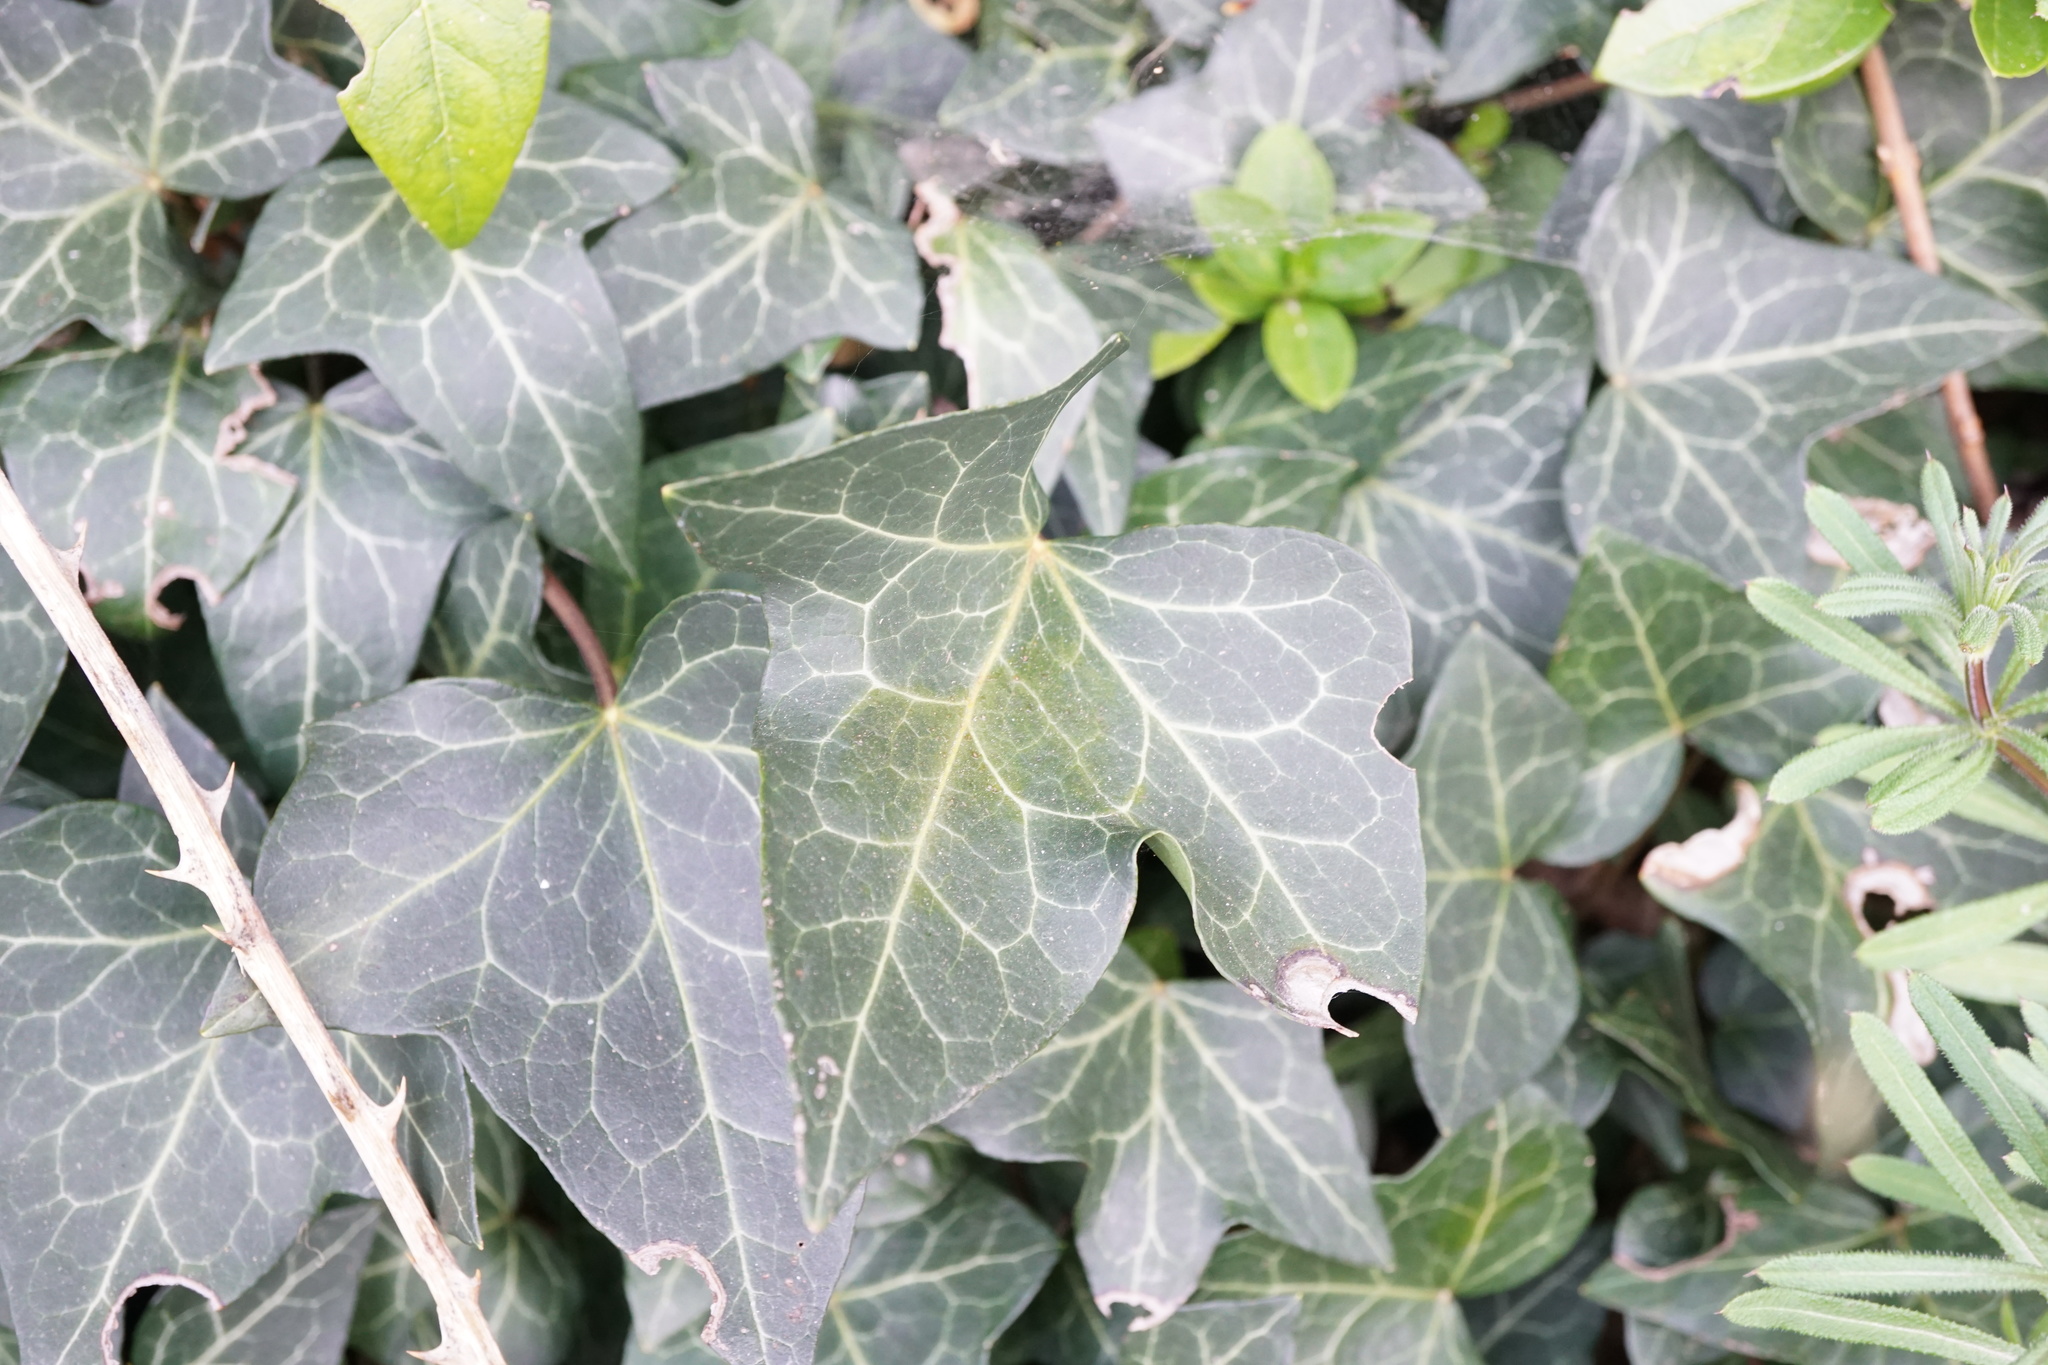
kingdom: Plantae
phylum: Tracheophyta
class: Magnoliopsida
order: Apiales
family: Araliaceae
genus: Hedera
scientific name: Hedera helix
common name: Ivy
